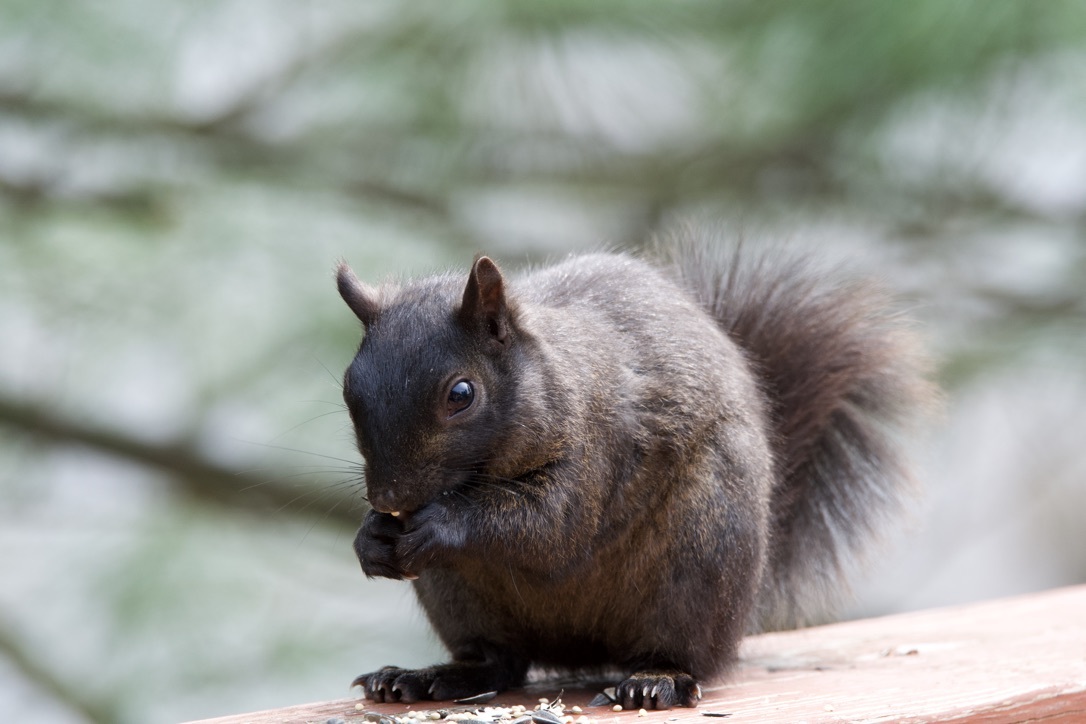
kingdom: Animalia
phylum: Chordata
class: Mammalia
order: Rodentia
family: Sciuridae
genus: Sciurus
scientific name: Sciurus carolinensis
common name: Eastern gray squirrel
